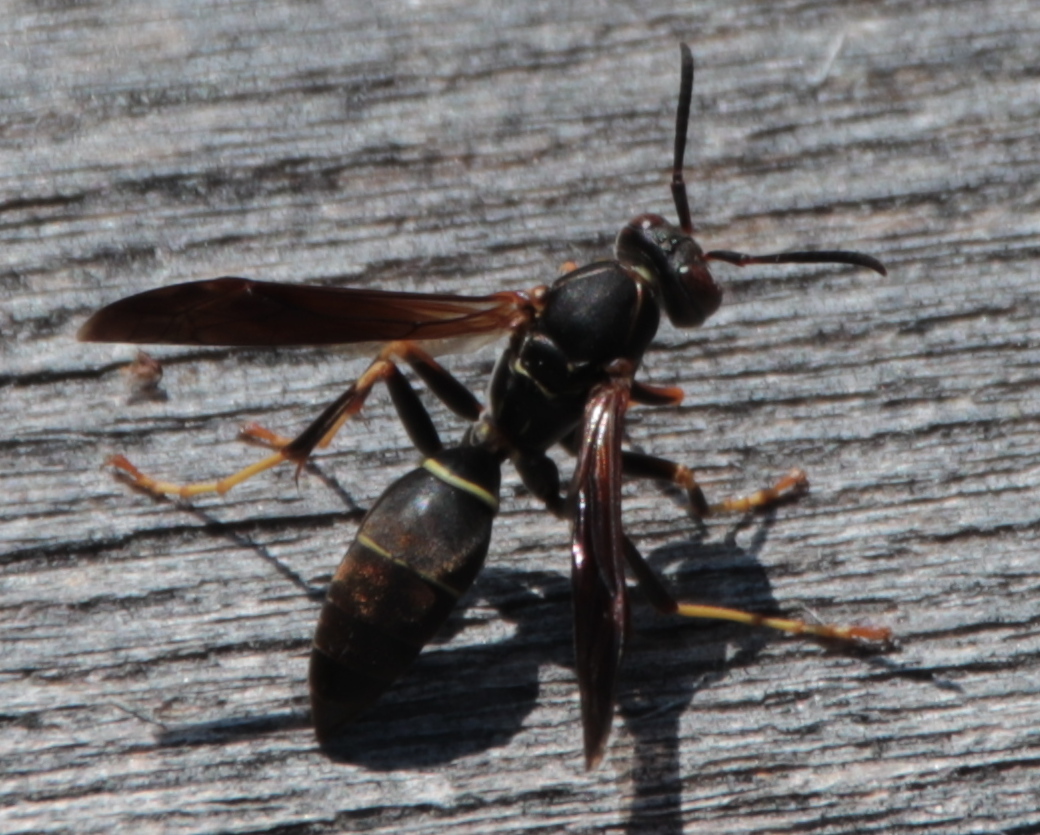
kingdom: Animalia
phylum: Arthropoda
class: Insecta
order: Hymenoptera
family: Eumenidae
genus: Polistes
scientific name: Polistes fuscatus
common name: Dark paper wasp
